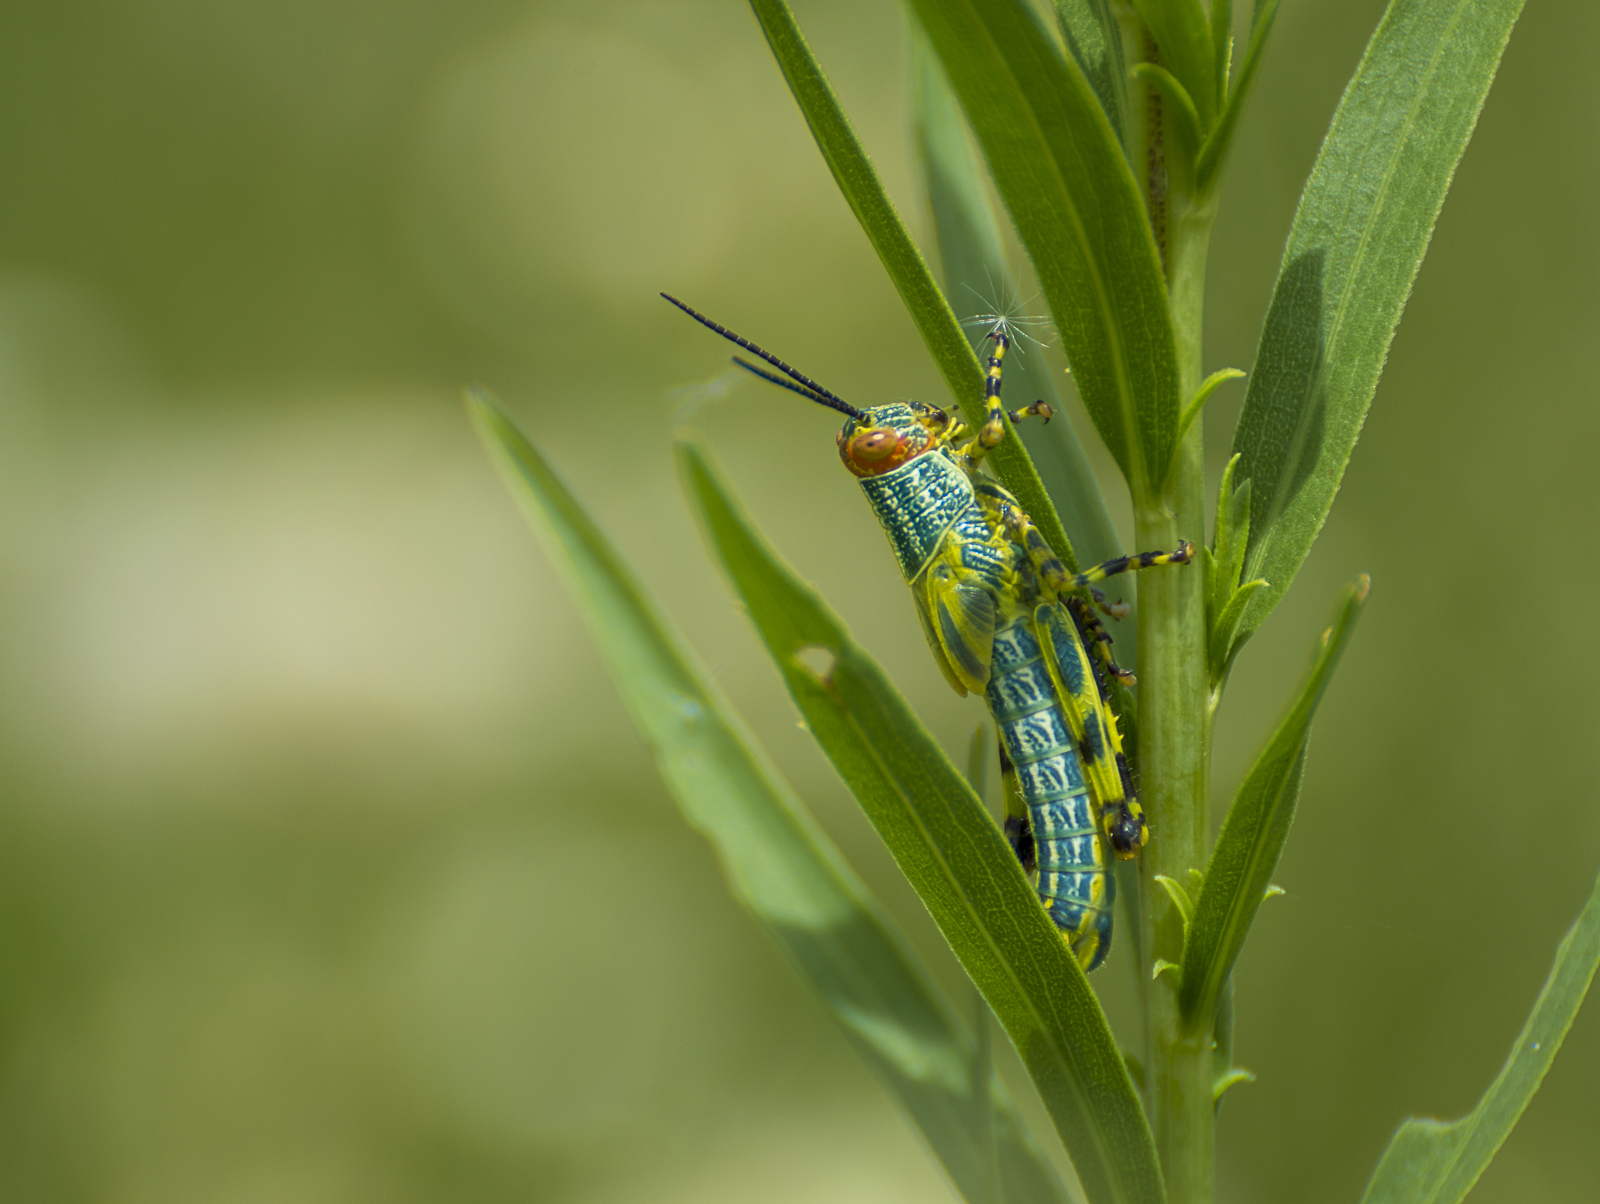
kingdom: Animalia
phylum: Arthropoda
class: Insecta
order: Orthoptera
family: Romaleidae
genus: Zoniopoda
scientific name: Zoniopoda tarsata
